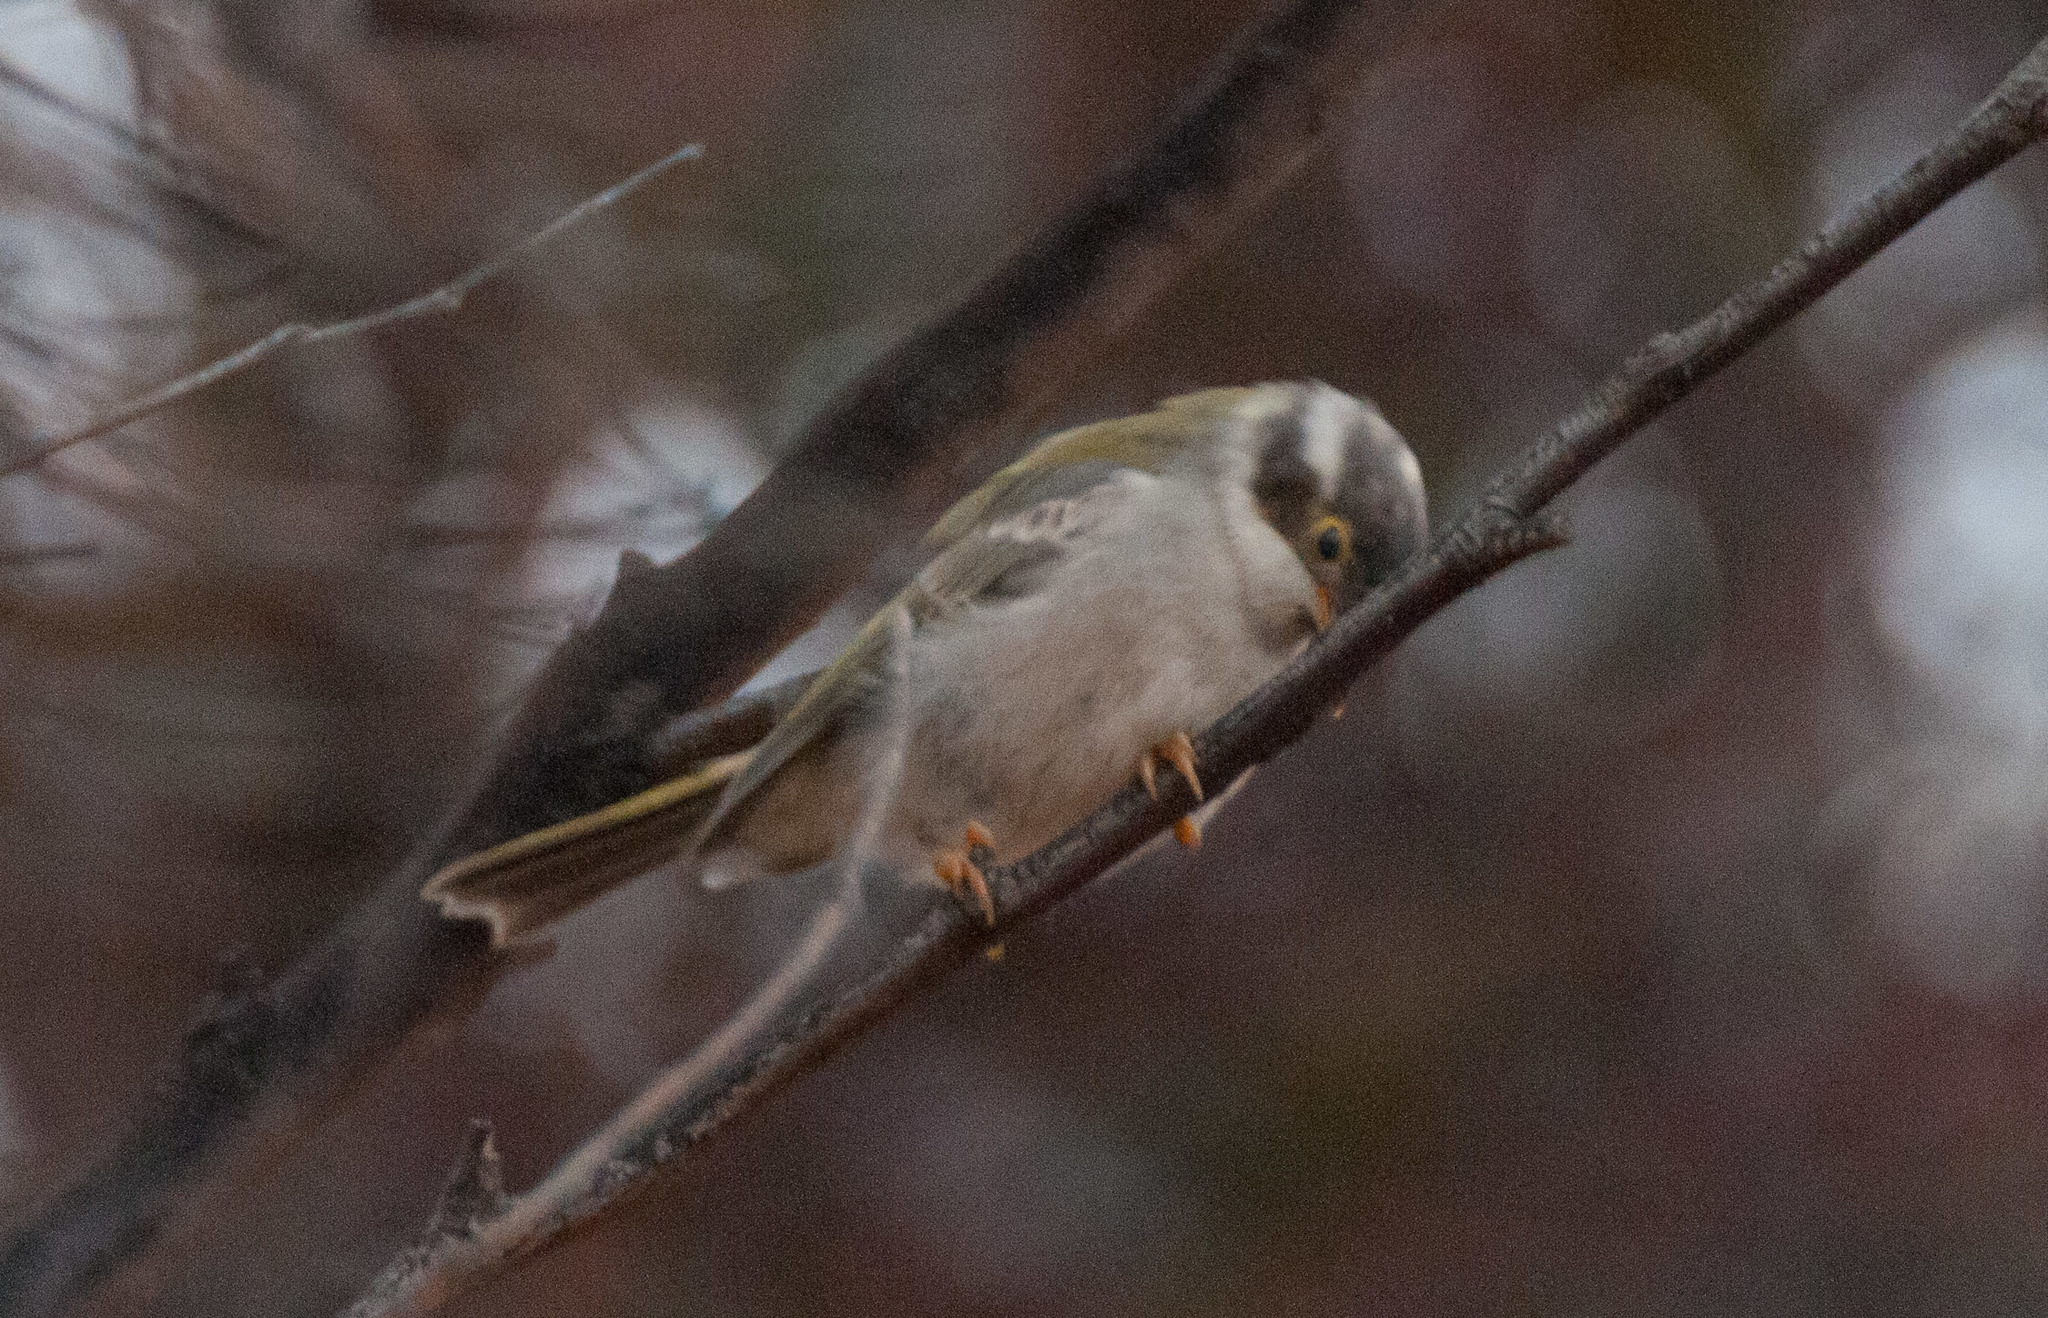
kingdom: Animalia
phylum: Chordata
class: Aves
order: Passeriformes
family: Meliphagidae
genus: Melithreptus
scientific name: Melithreptus brevirostris
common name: Brown-headed honeyeater
